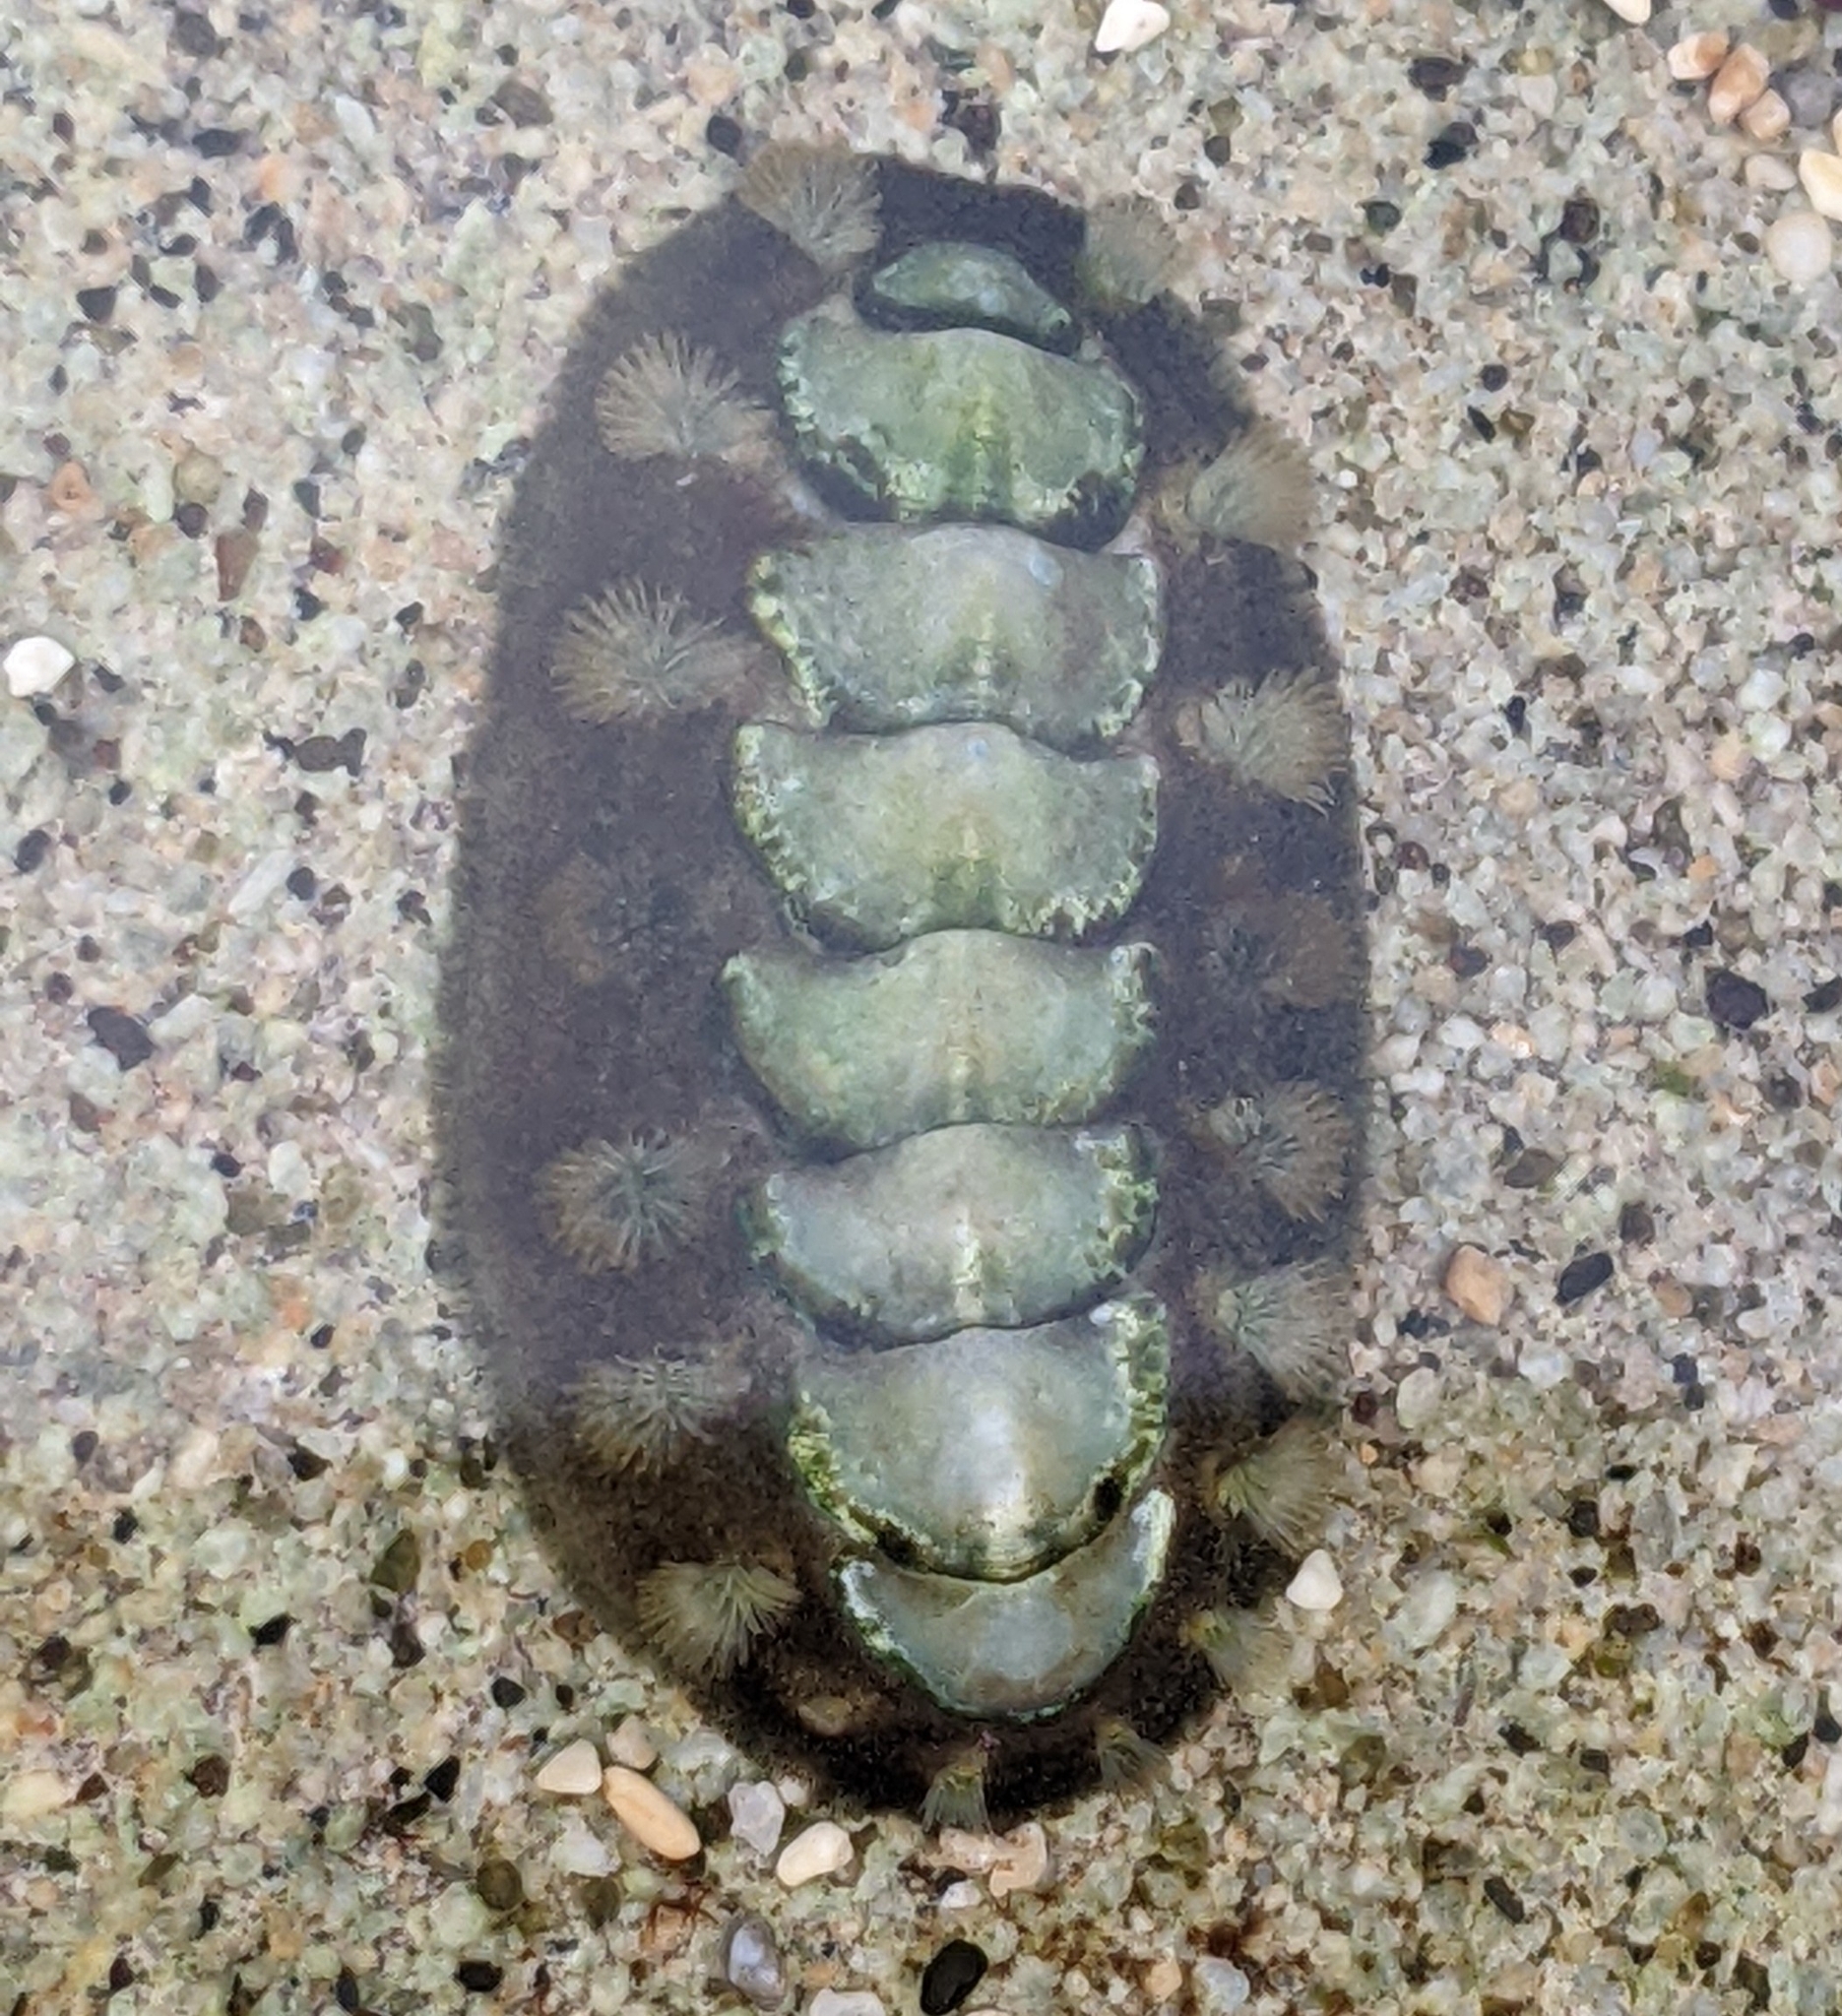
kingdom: Animalia
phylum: Mollusca
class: Polyplacophora
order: Chitonida
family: Acanthochitonidae
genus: Acanthochitona
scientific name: Acanthochitona viridis
